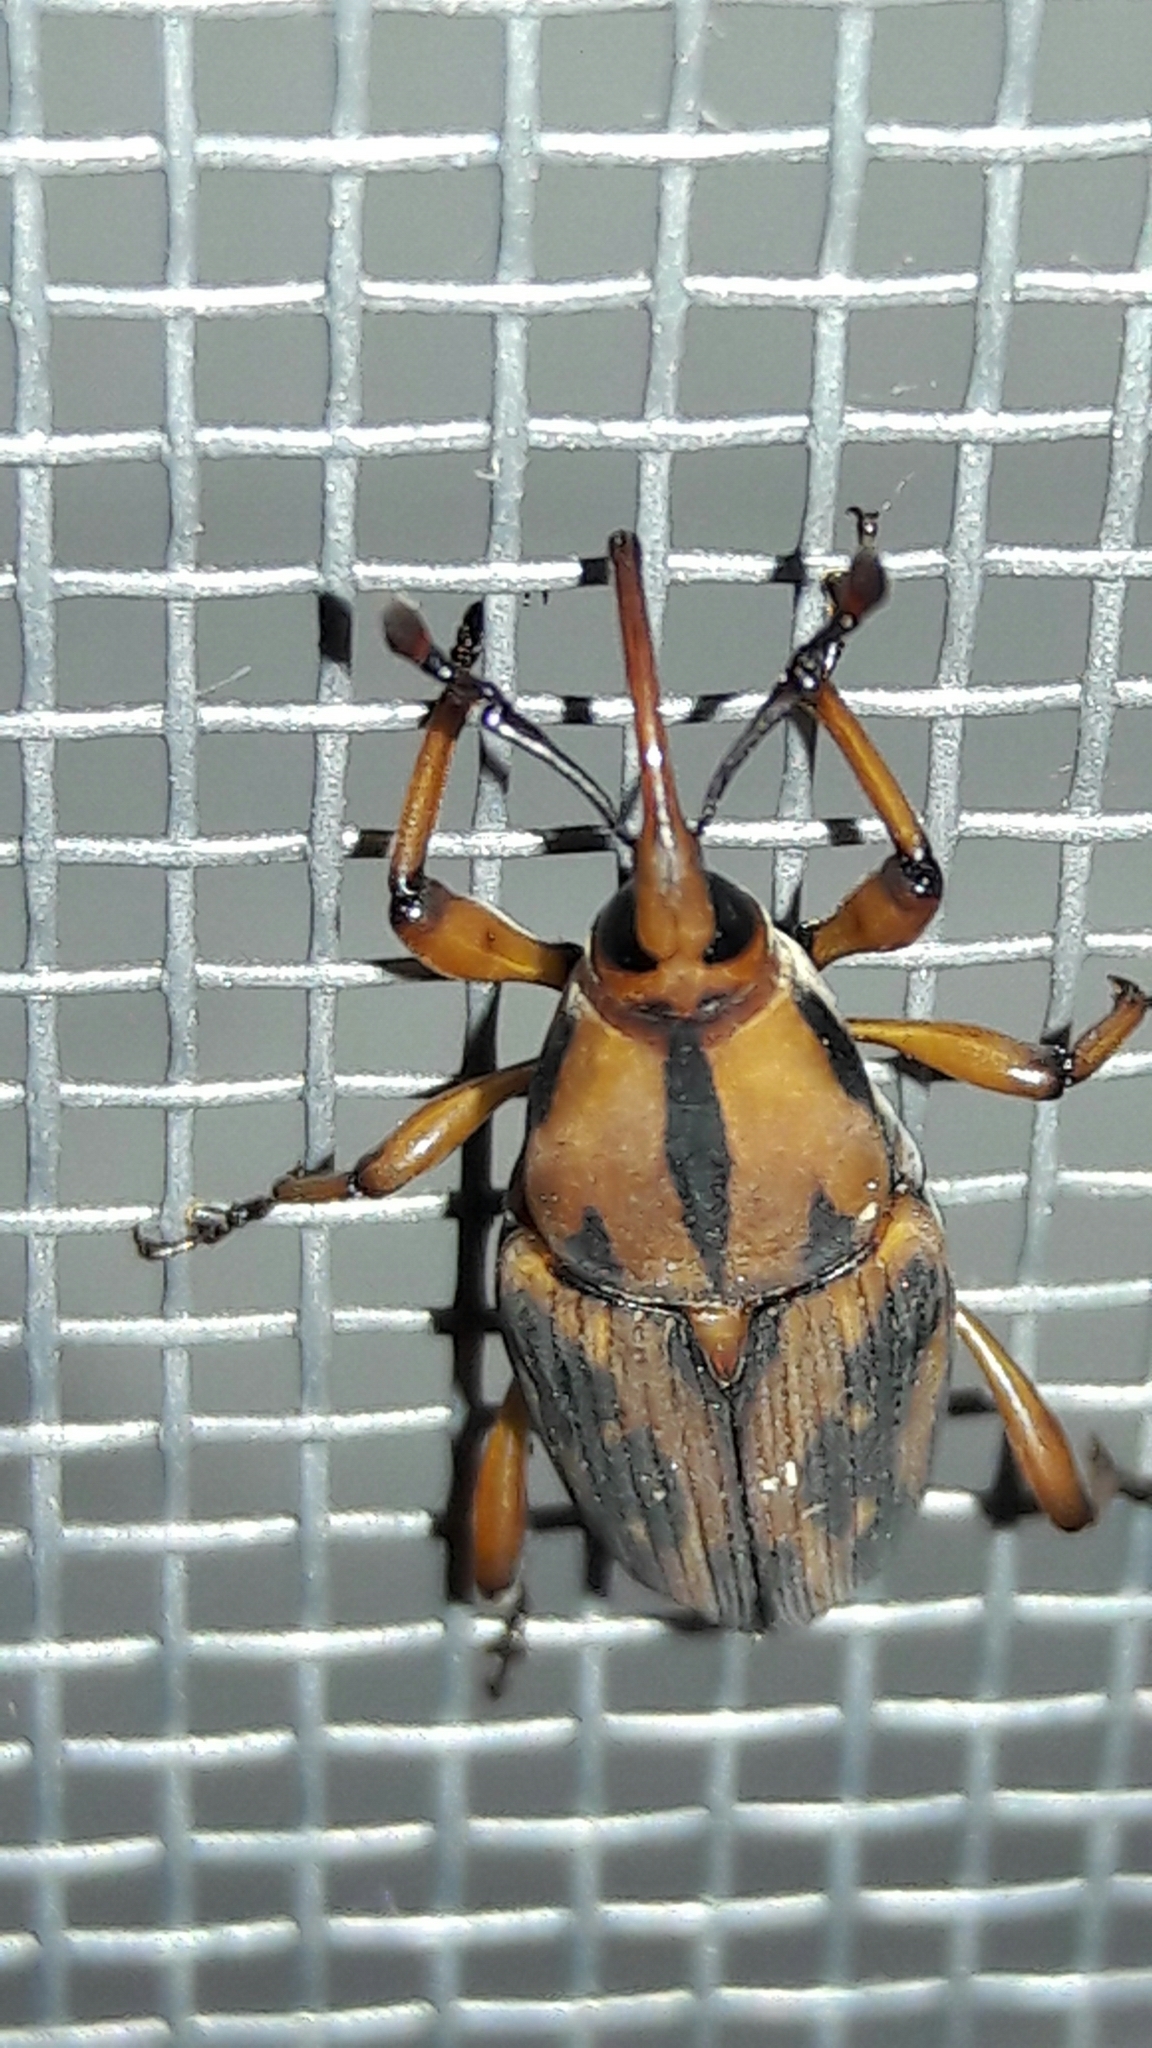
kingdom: Animalia
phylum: Arthropoda
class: Insecta
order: Coleoptera
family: Dryophthoridae
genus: Metamasius
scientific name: Metamasius hemipterus
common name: Weevil
